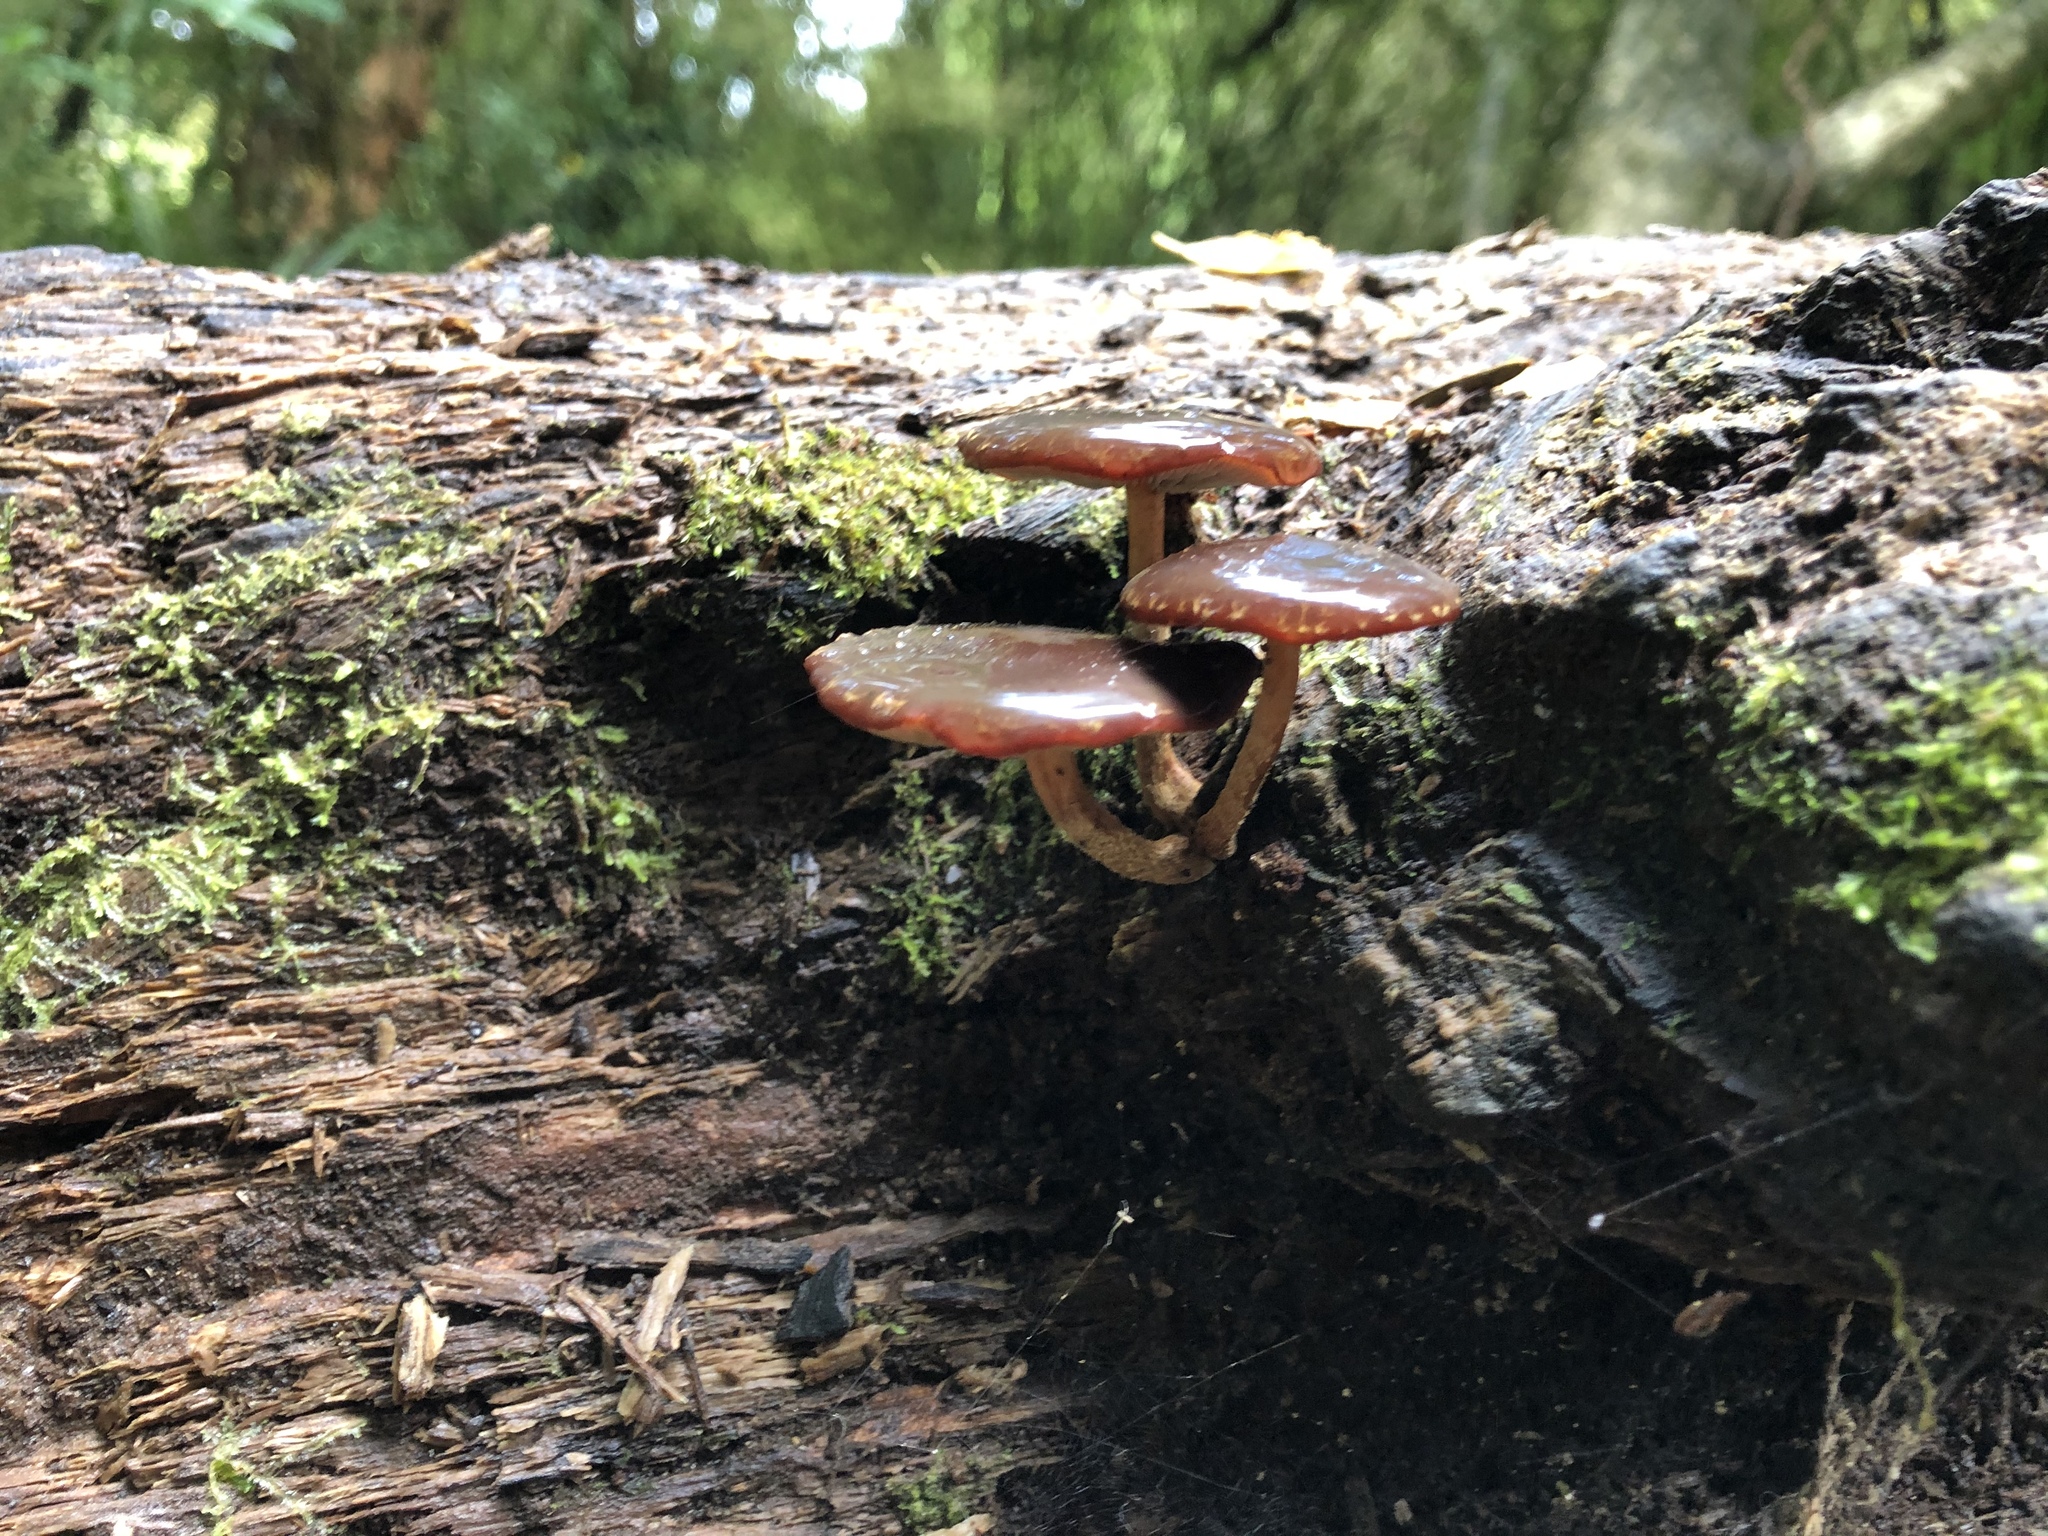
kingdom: Fungi
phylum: Basidiomycota
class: Agaricomycetes
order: Agaricales
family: Strophariaceae
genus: Hypholoma
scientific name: Hypholoma brunneum
